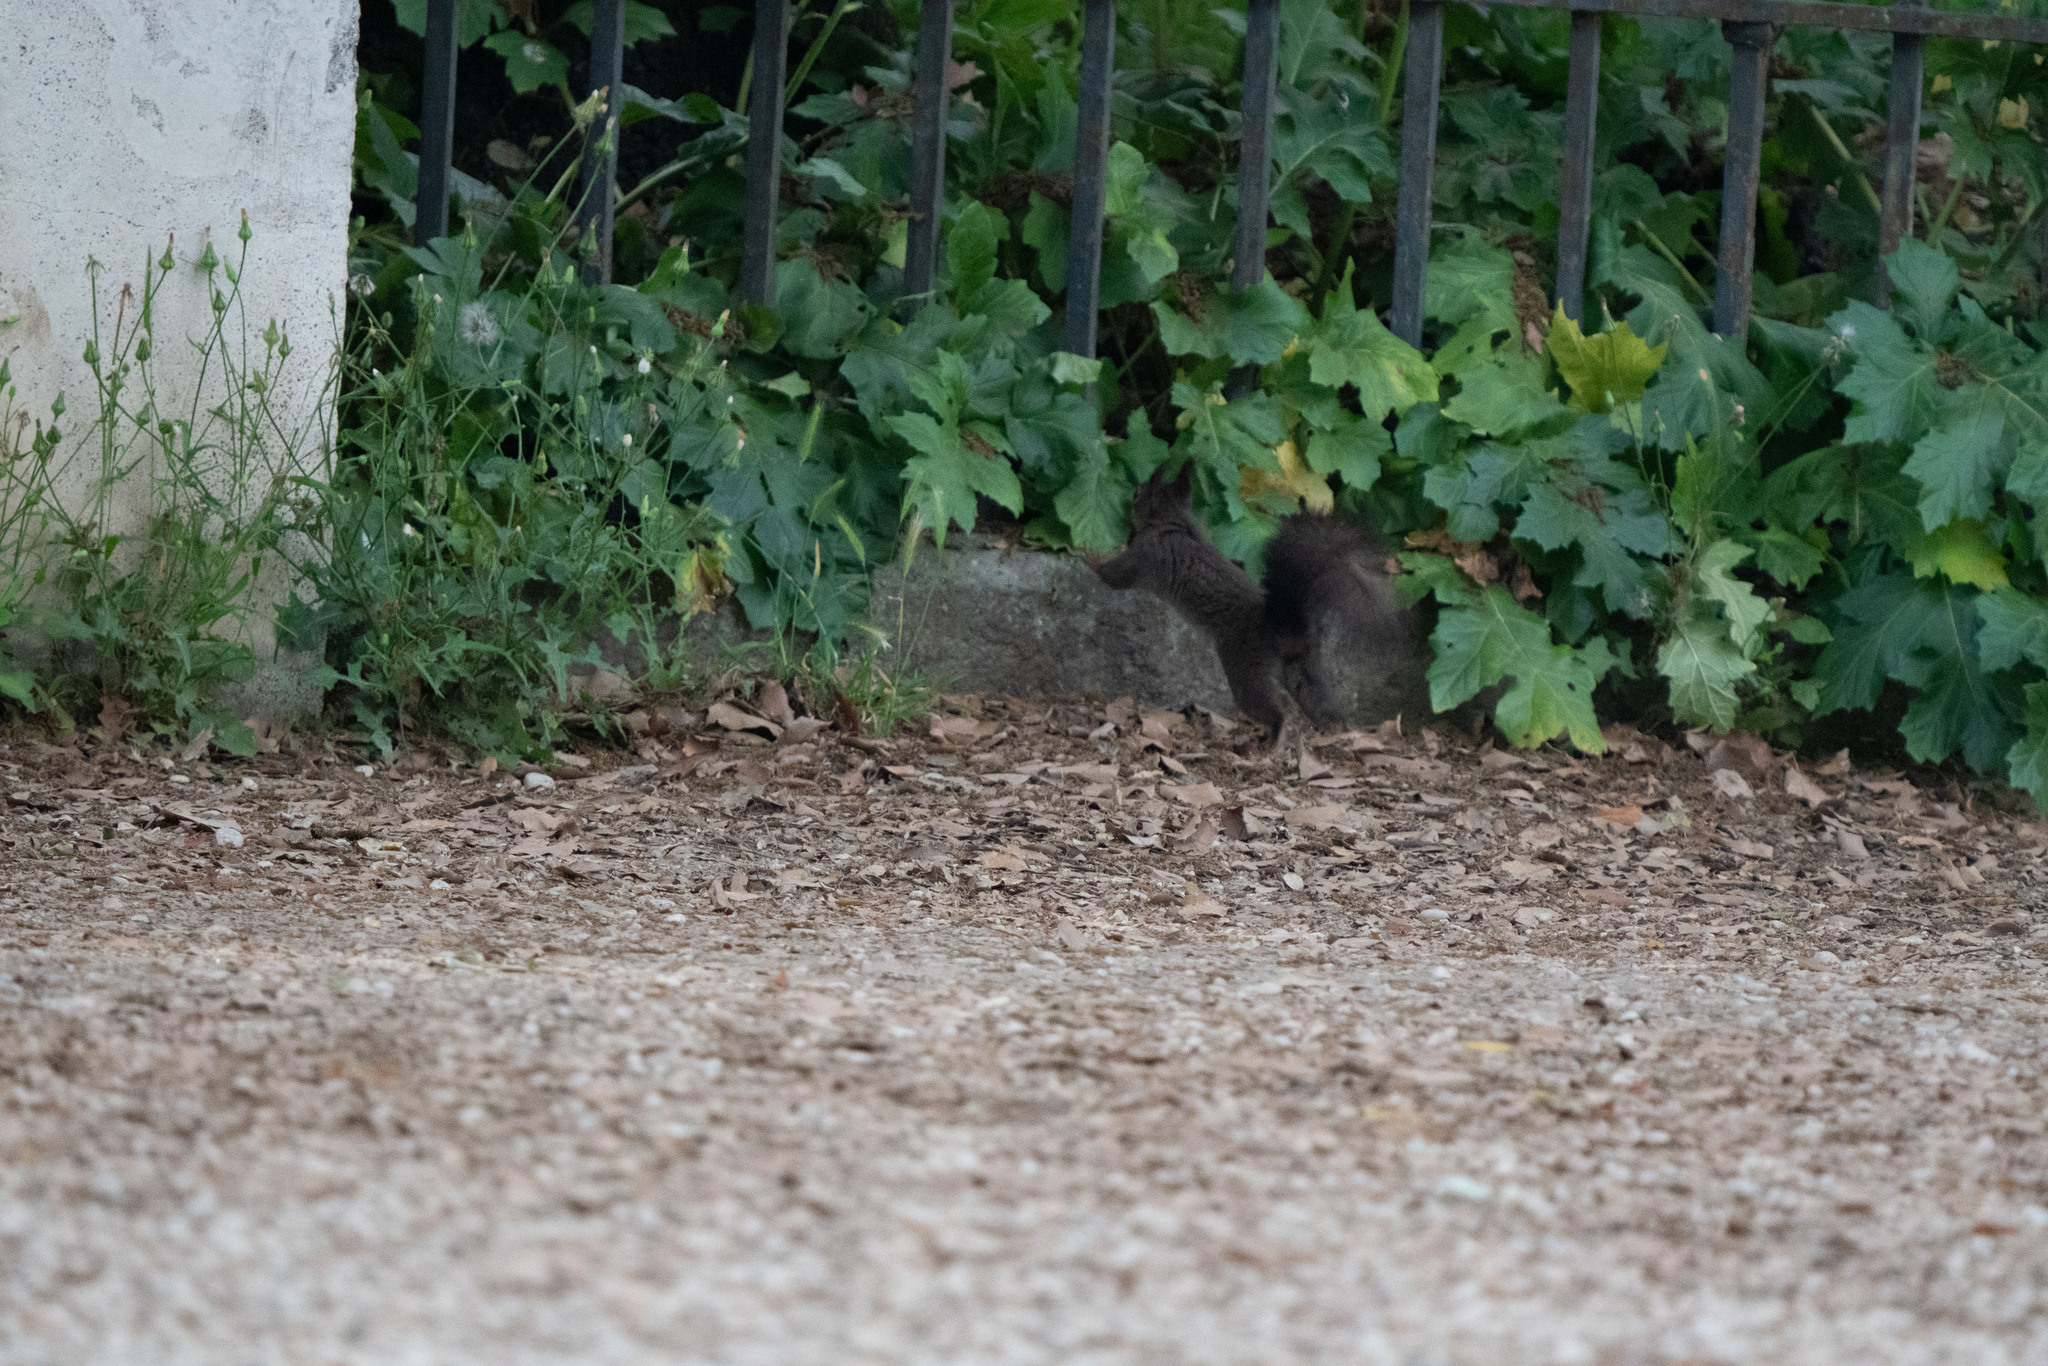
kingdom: Animalia
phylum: Chordata
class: Mammalia
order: Rodentia
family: Sciuridae
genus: Sciurus
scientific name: Sciurus vulgaris
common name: Eurasian red squirrel
